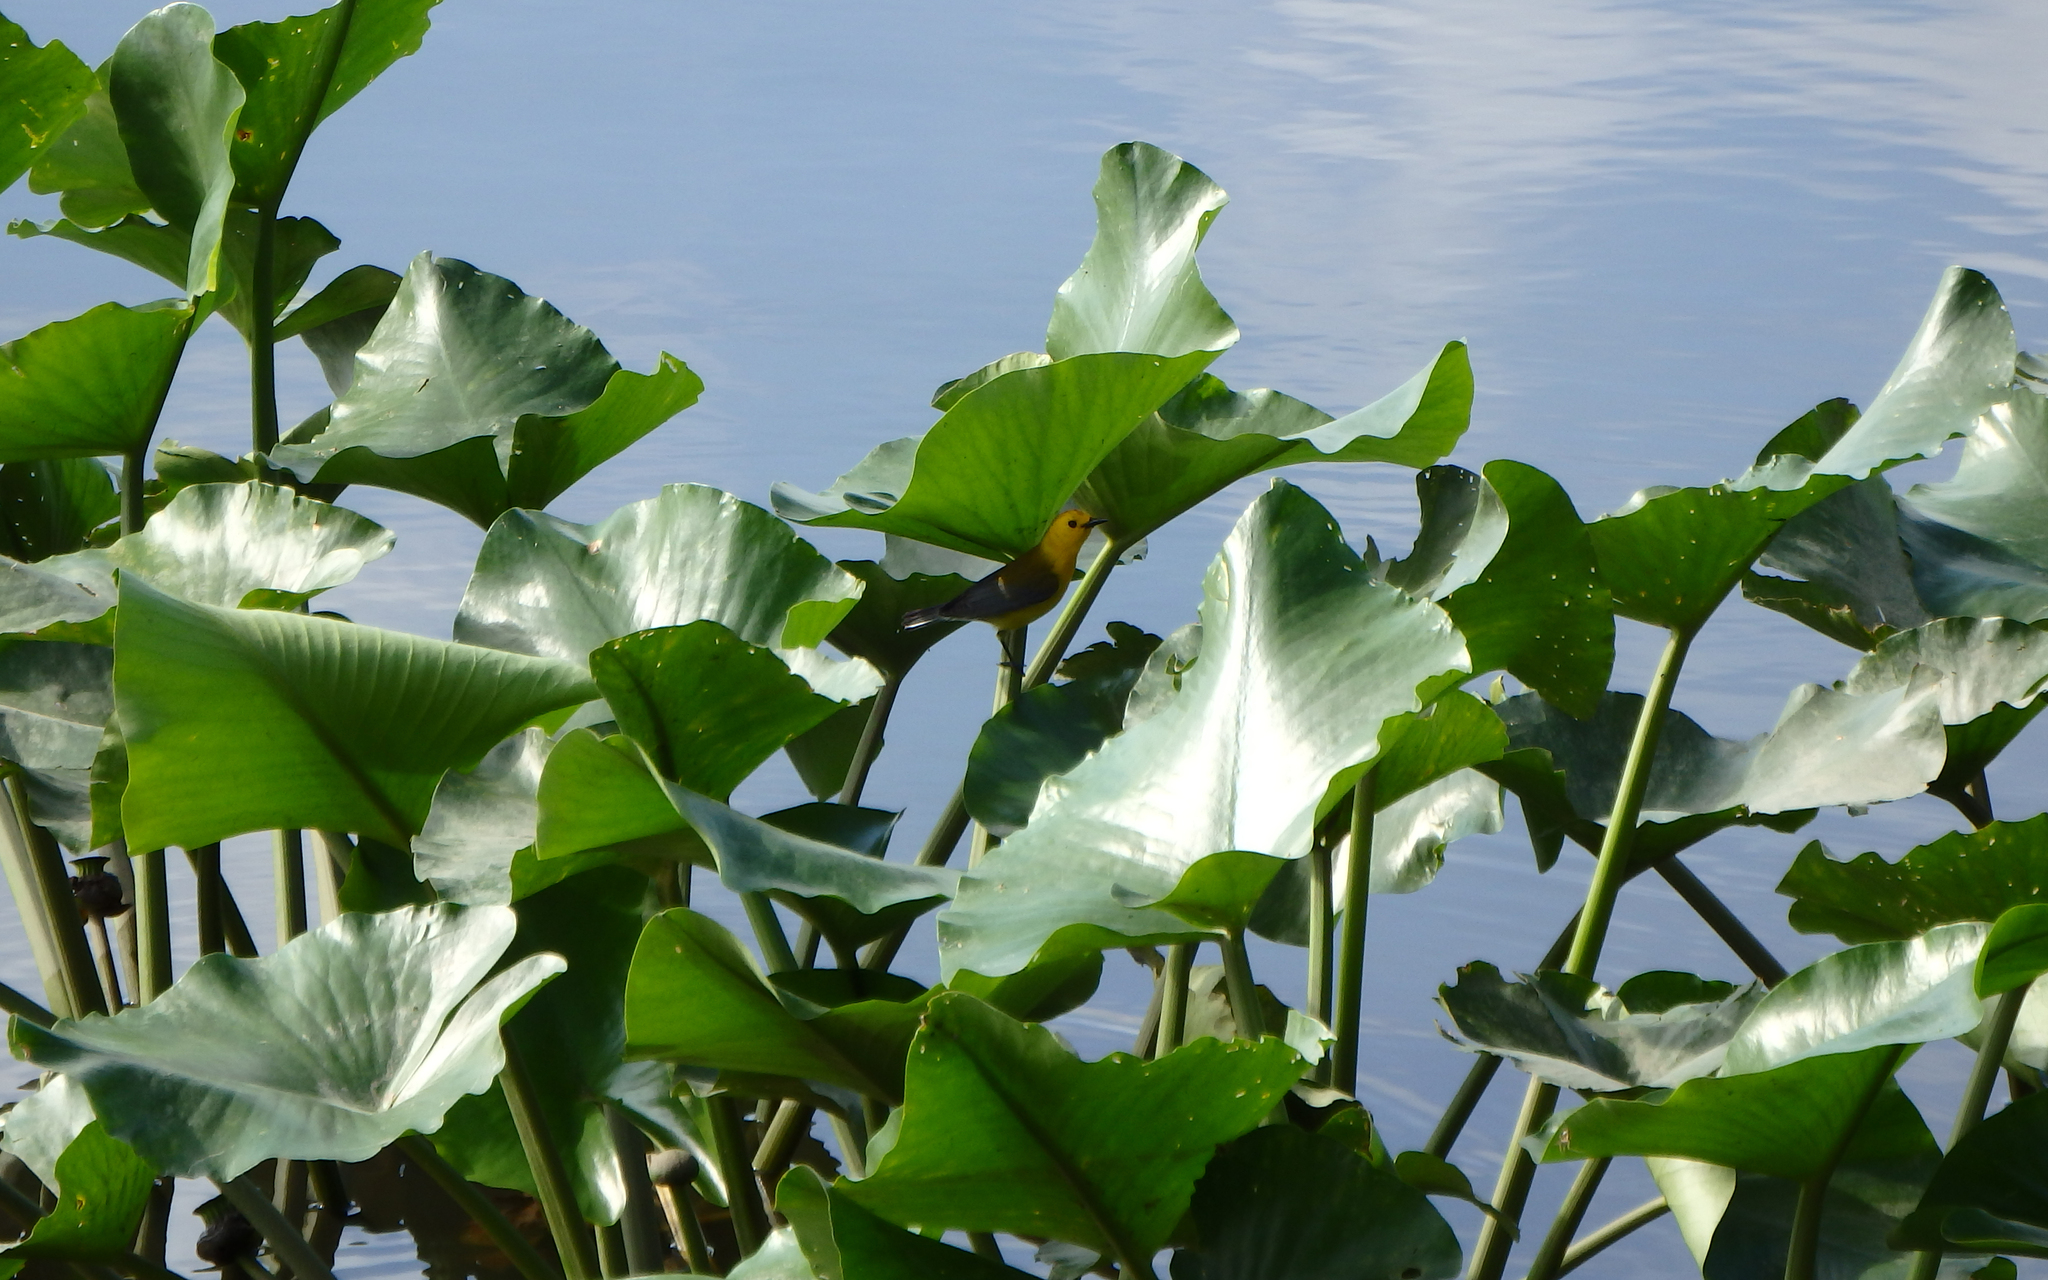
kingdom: Animalia
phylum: Chordata
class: Aves
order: Passeriformes
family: Parulidae
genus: Protonotaria
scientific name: Protonotaria citrea
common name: Prothonotary warbler
